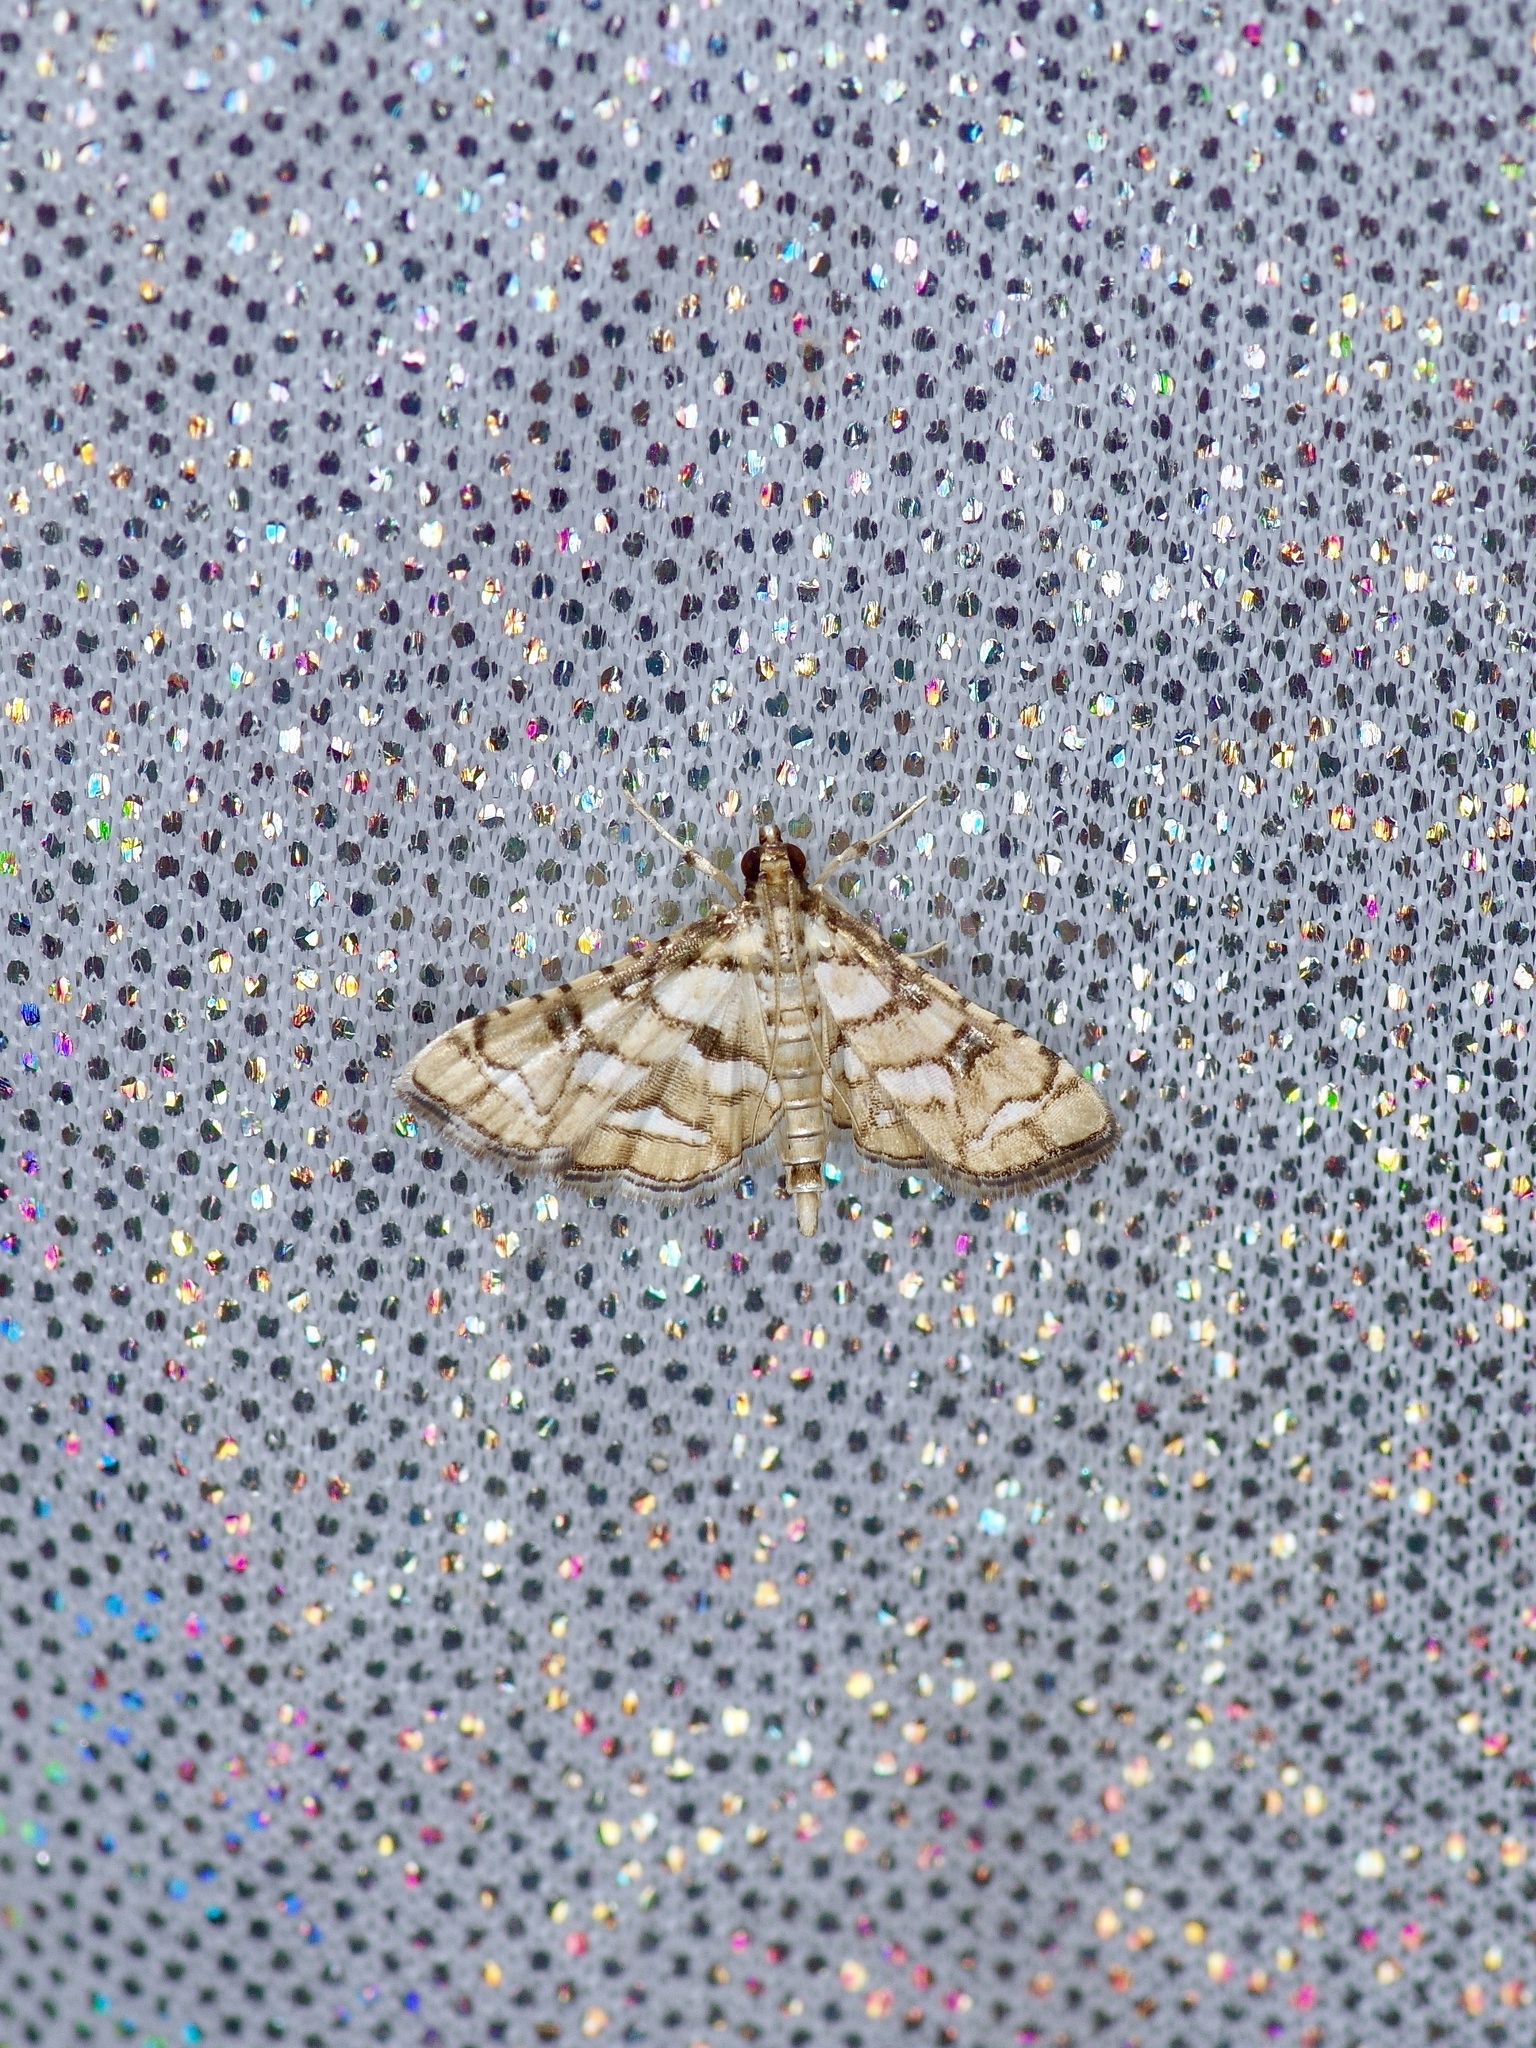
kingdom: Animalia
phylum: Arthropoda
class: Insecta
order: Lepidoptera
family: Crambidae
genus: Hileithia
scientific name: Hileithia magualis
